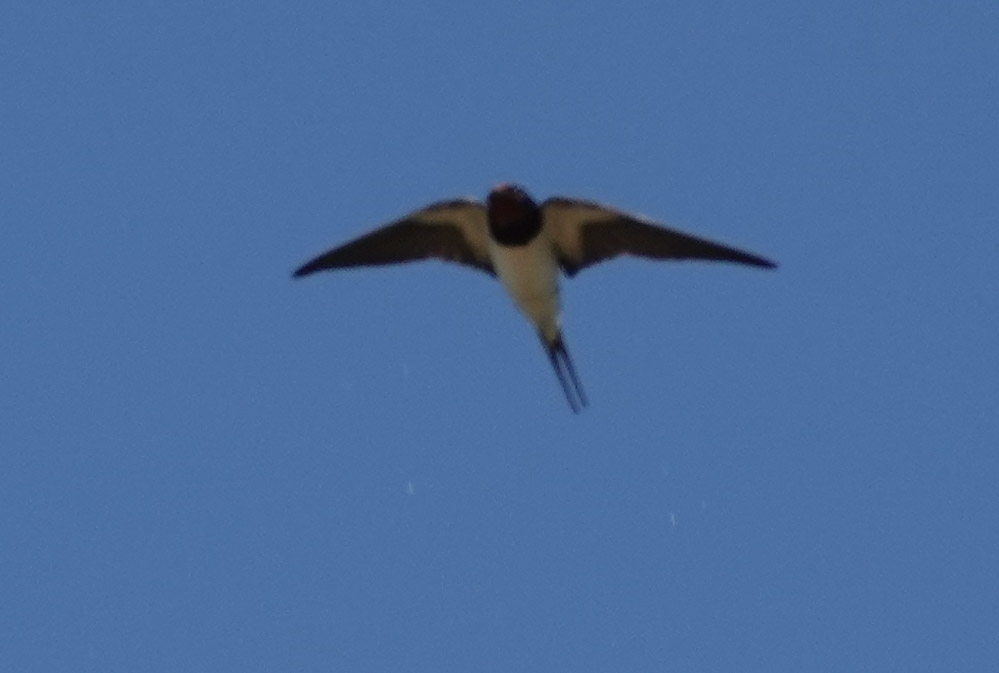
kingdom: Animalia
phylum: Chordata
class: Aves
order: Passeriformes
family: Hirundinidae
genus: Hirundo
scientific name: Hirundo rustica
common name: Barn swallow
